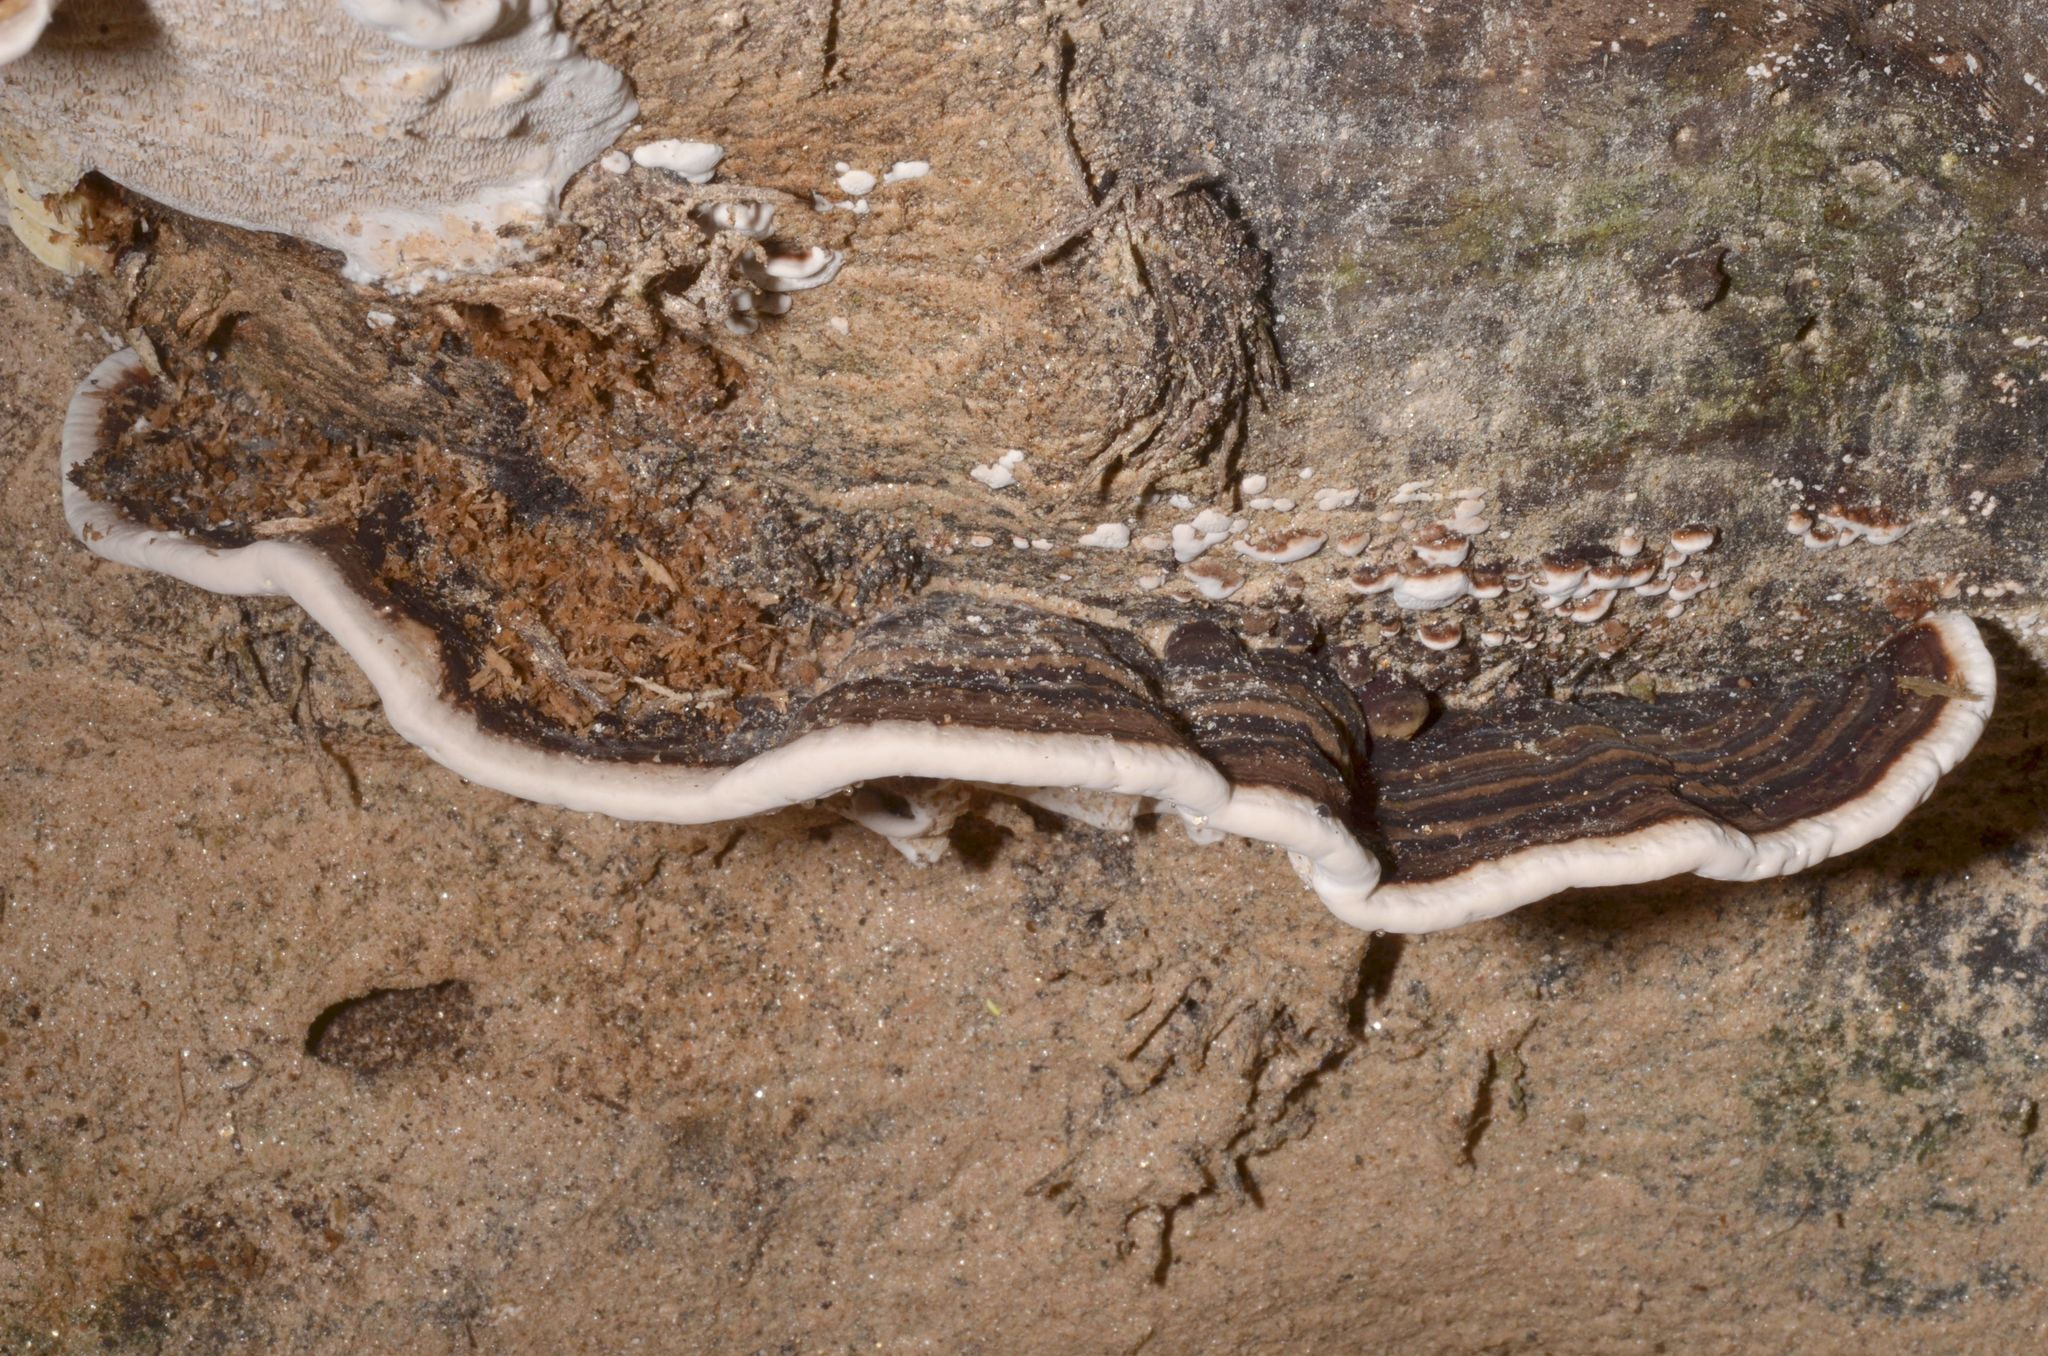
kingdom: Fungi
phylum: Basidiomycota
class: Agaricomycetes
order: Polyporales
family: Polyporaceae
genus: Earliella
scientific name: Earliella scabrosa
